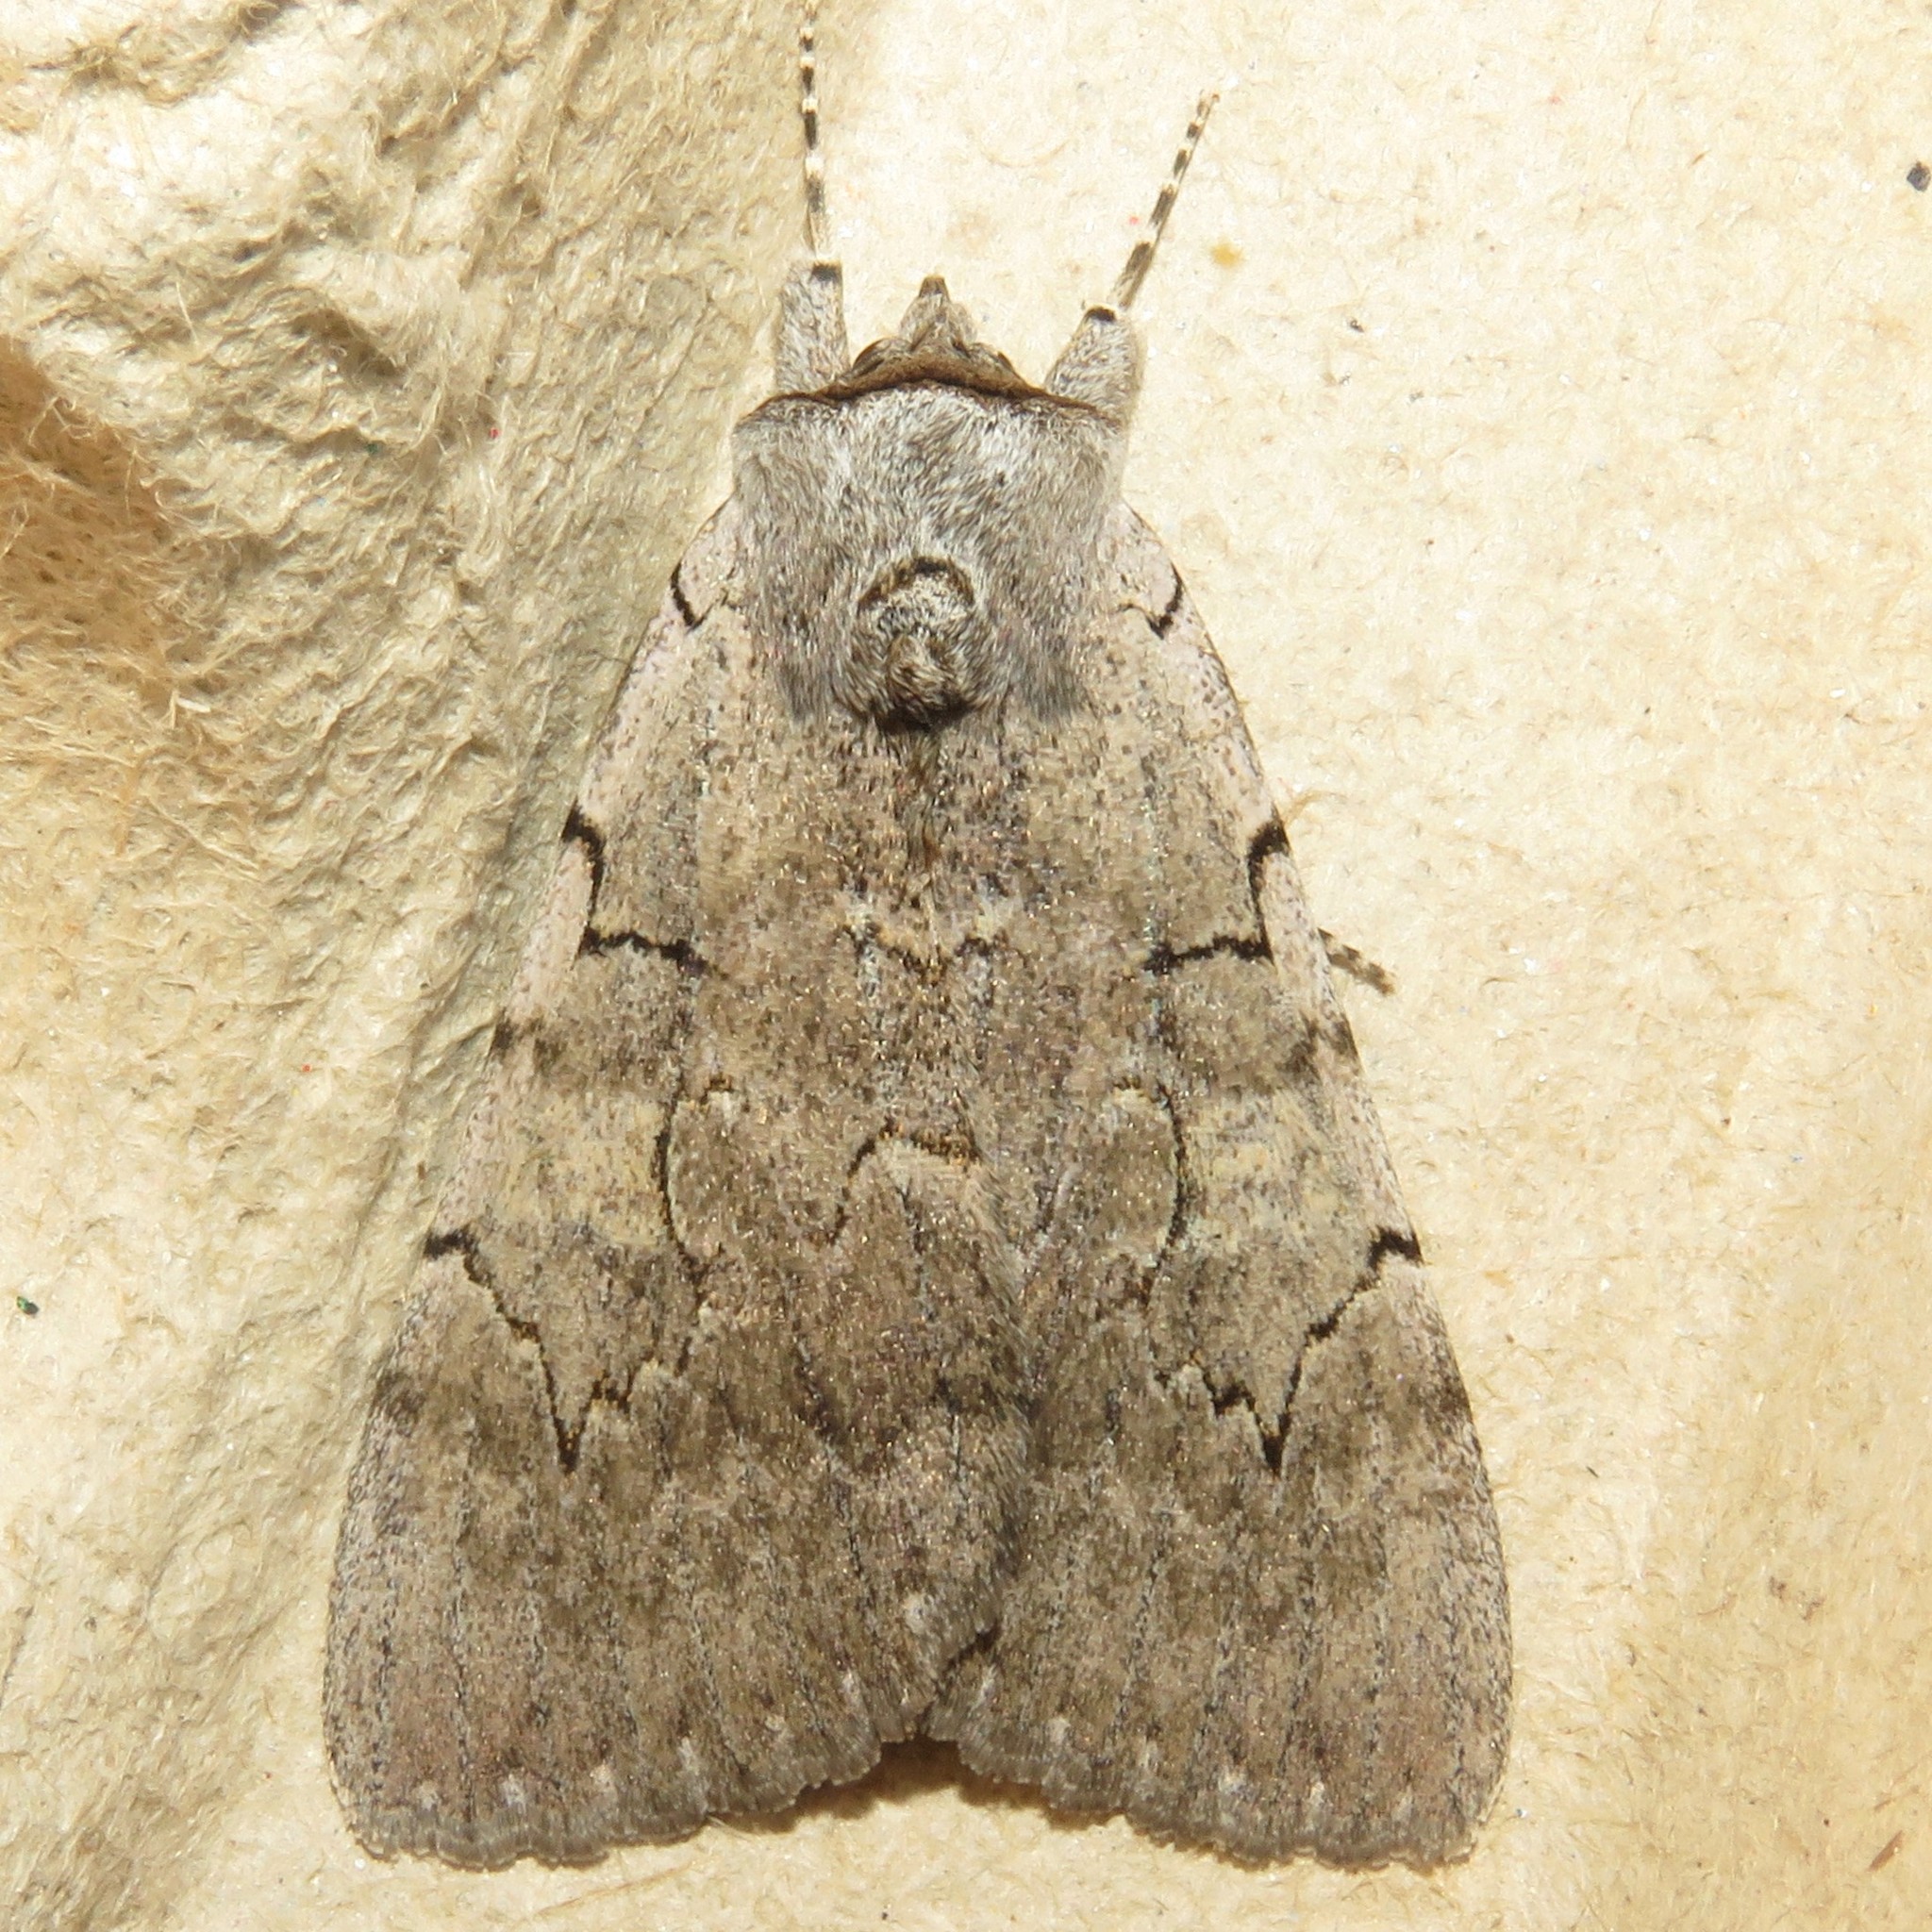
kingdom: Animalia
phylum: Arthropoda
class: Insecta
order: Lepidoptera
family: Erebidae
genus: Catocala
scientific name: Catocala concumbens
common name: Pink underwing
